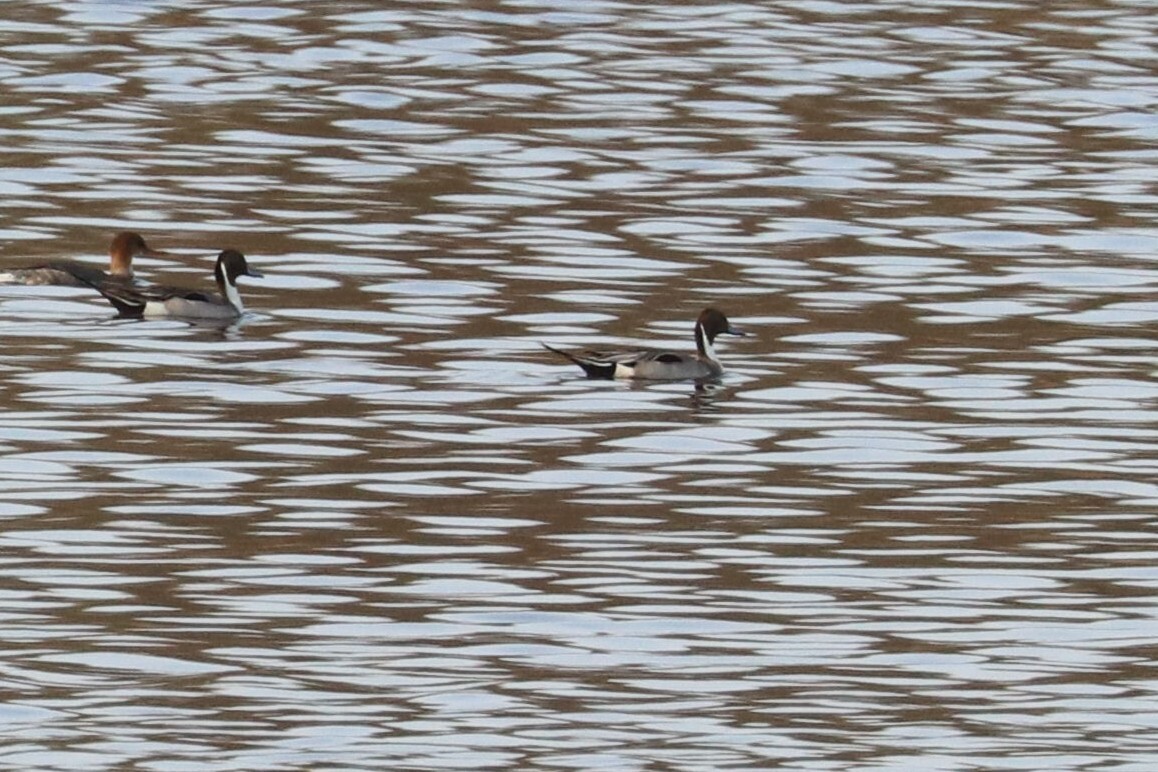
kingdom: Animalia
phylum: Chordata
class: Aves
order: Anseriformes
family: Anatidae
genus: Anas
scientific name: Anas acuta
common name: Northern pintail
